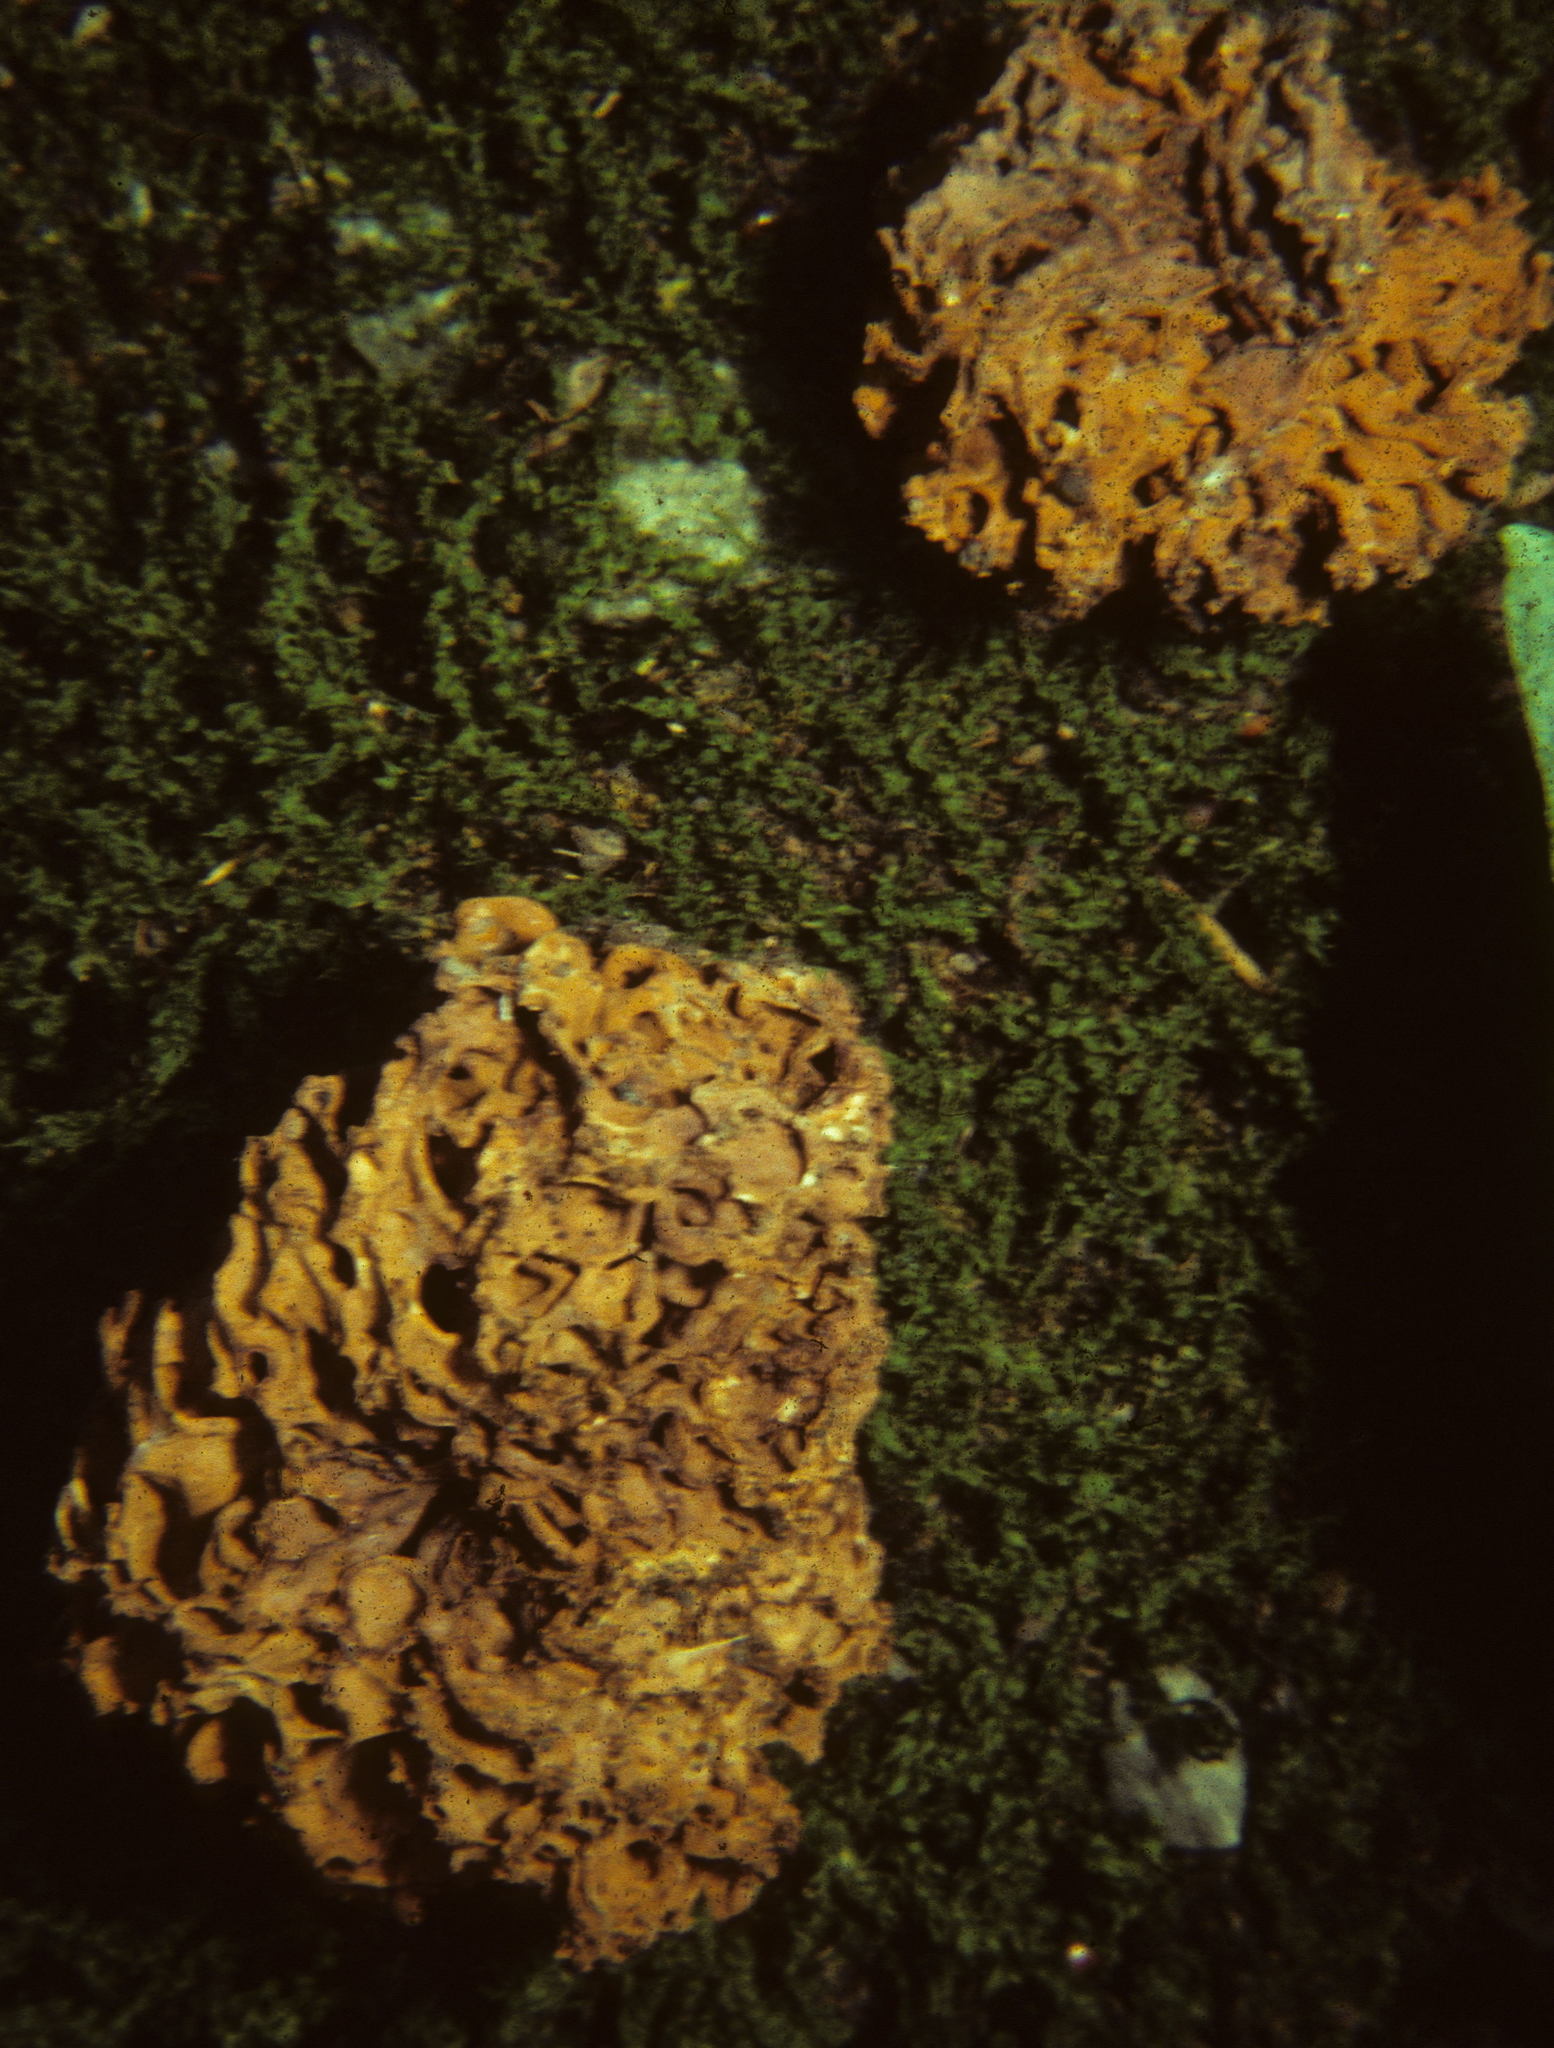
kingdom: Fungi
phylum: Basidiomycota
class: Agaricomycetes
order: Gomphales
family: Gomphaceae
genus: Gautieria
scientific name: Gautieria morchelliformis
